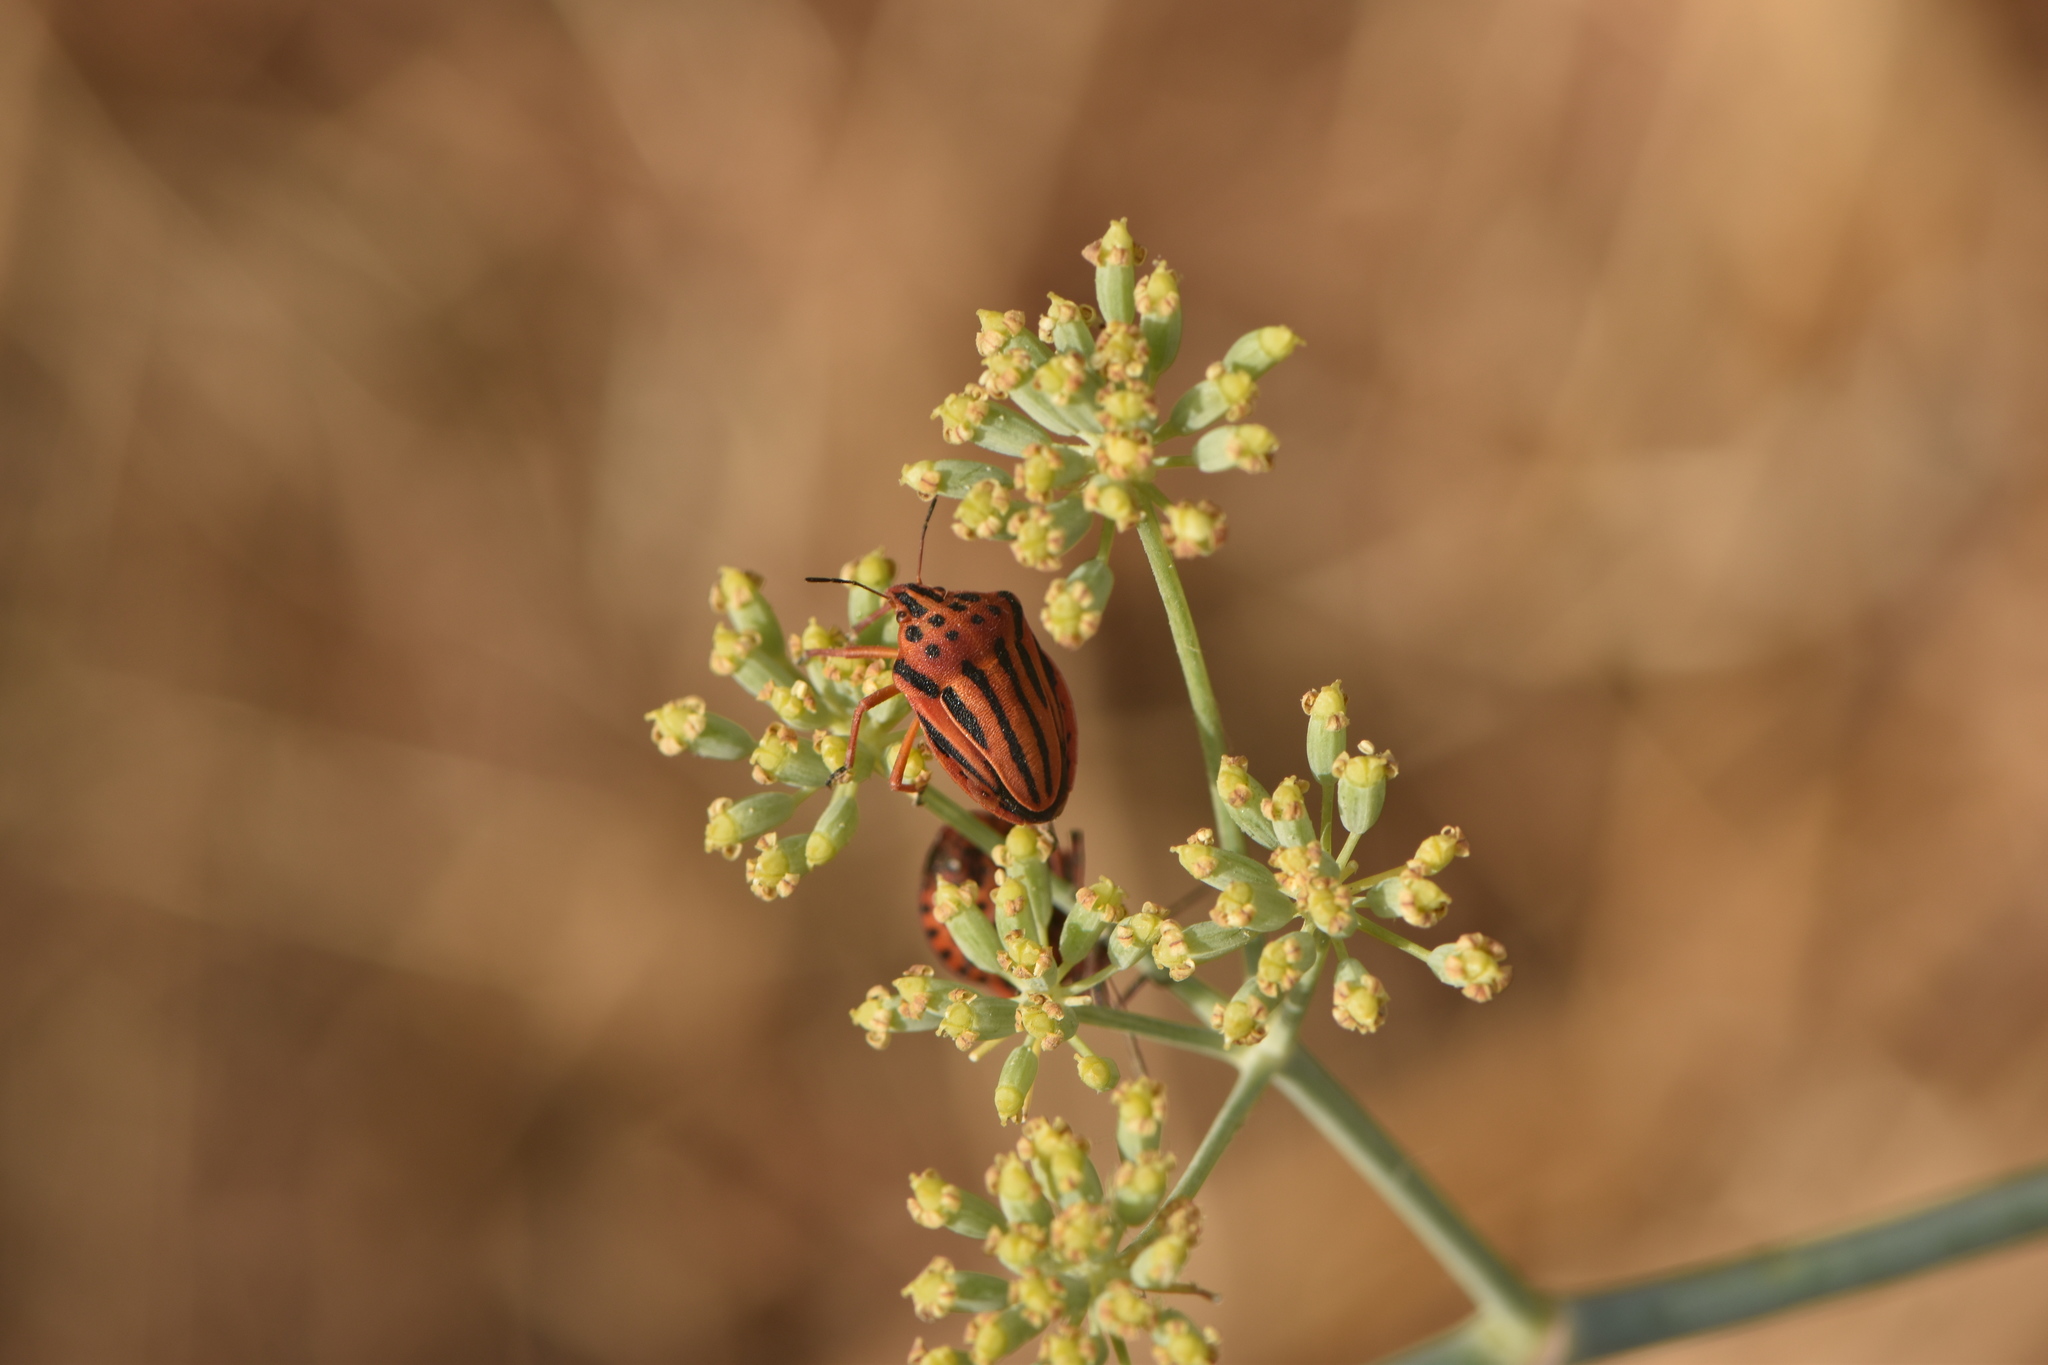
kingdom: Animalia
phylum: Arthropoda
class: Insecta
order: Hemiptera
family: Pentatomidae
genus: Graphosoma
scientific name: Graphosoma semipunctatum
